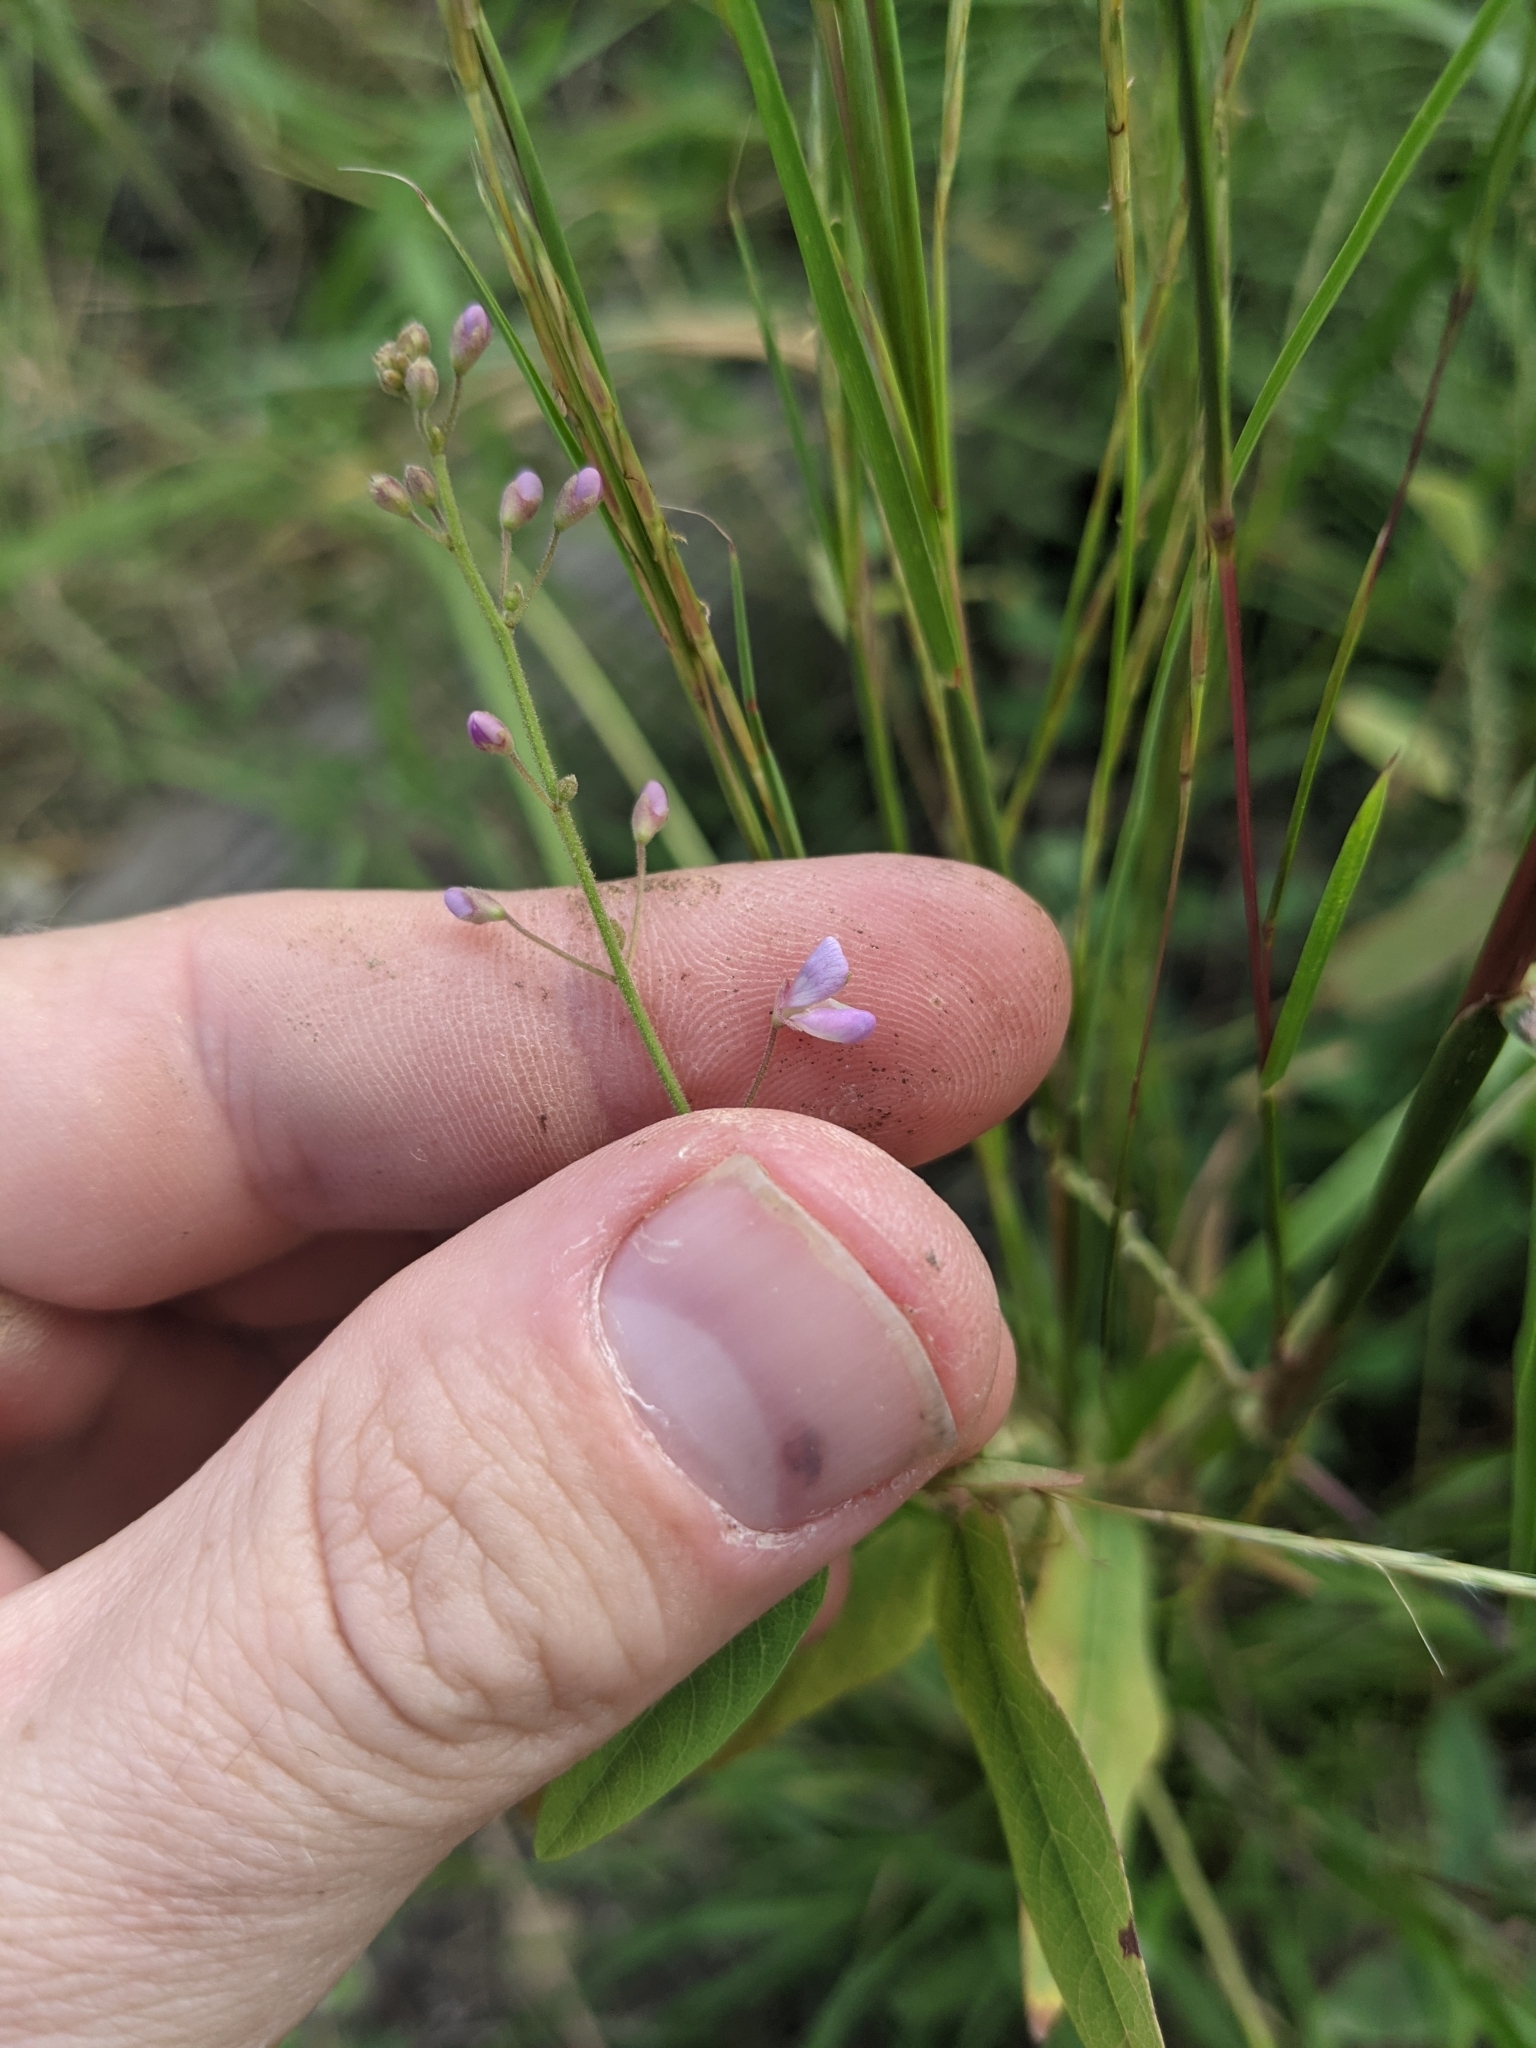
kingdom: Plantae
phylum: Tracheophyta
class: Magnoliopsida
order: Fabales
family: Fabaceae
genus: Desmodium
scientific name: Desmodium psilophyllum
